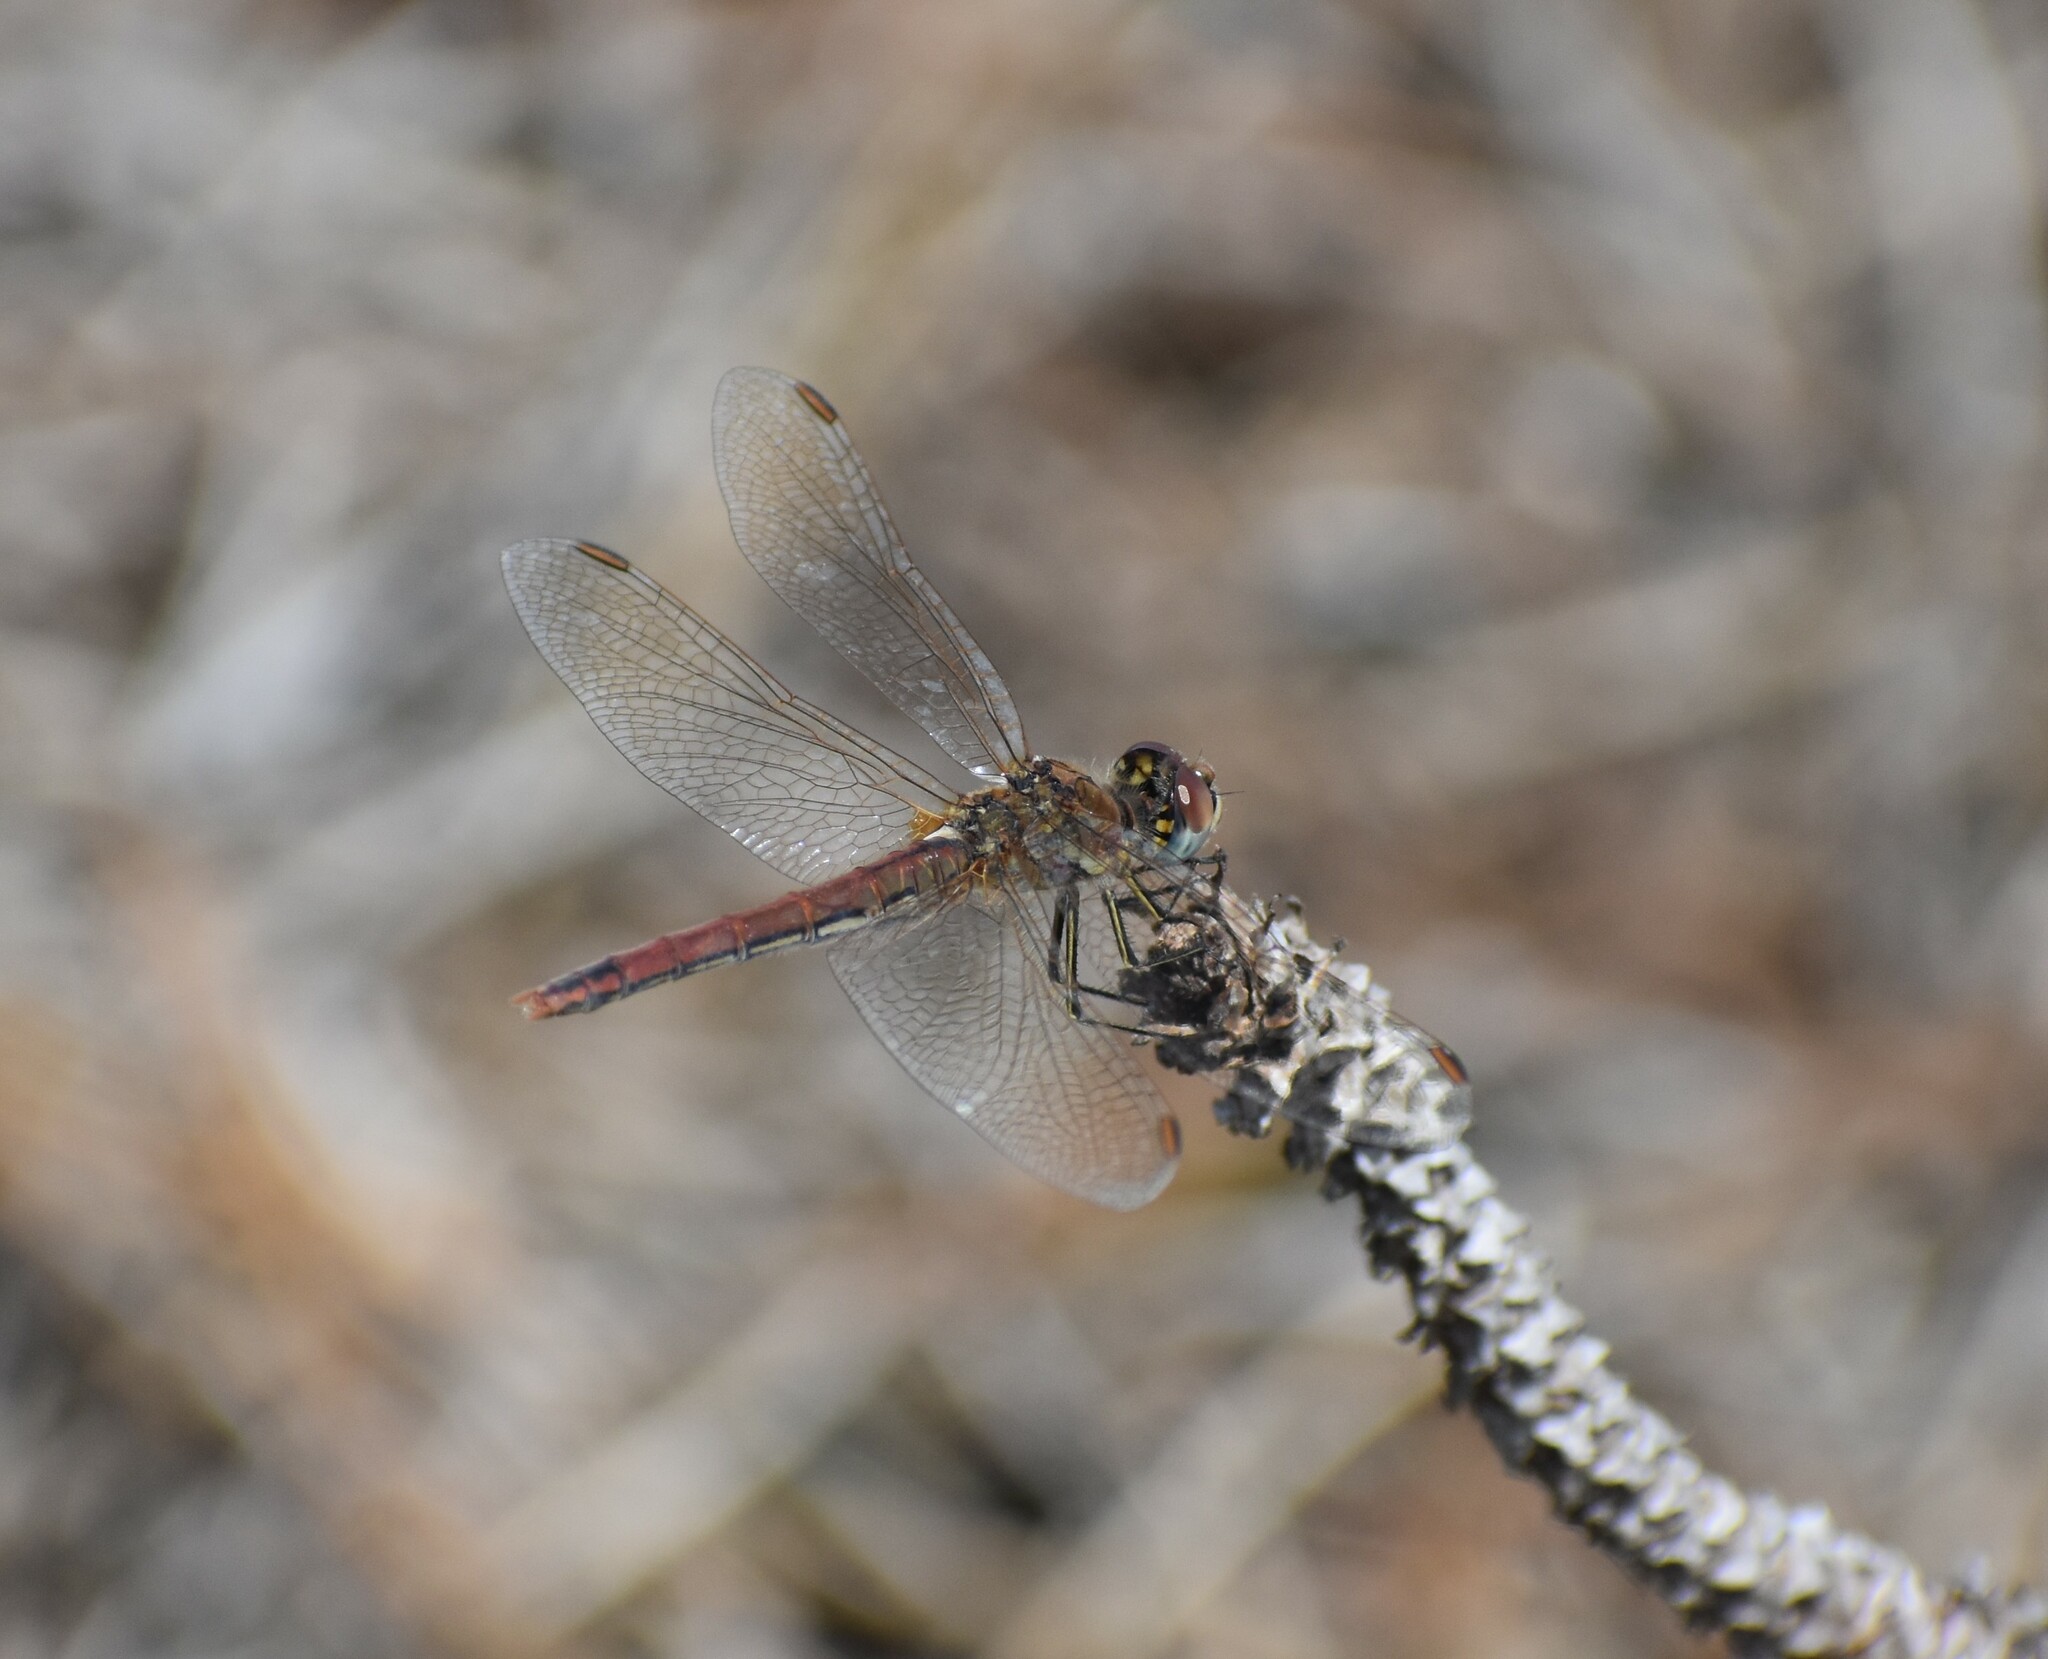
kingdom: Animalia
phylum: Arthropoda
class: Insecta
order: Odonata
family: Libellulidae
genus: Sympetrum
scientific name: Sympetrum fonscolombii
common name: Red-veined darter
